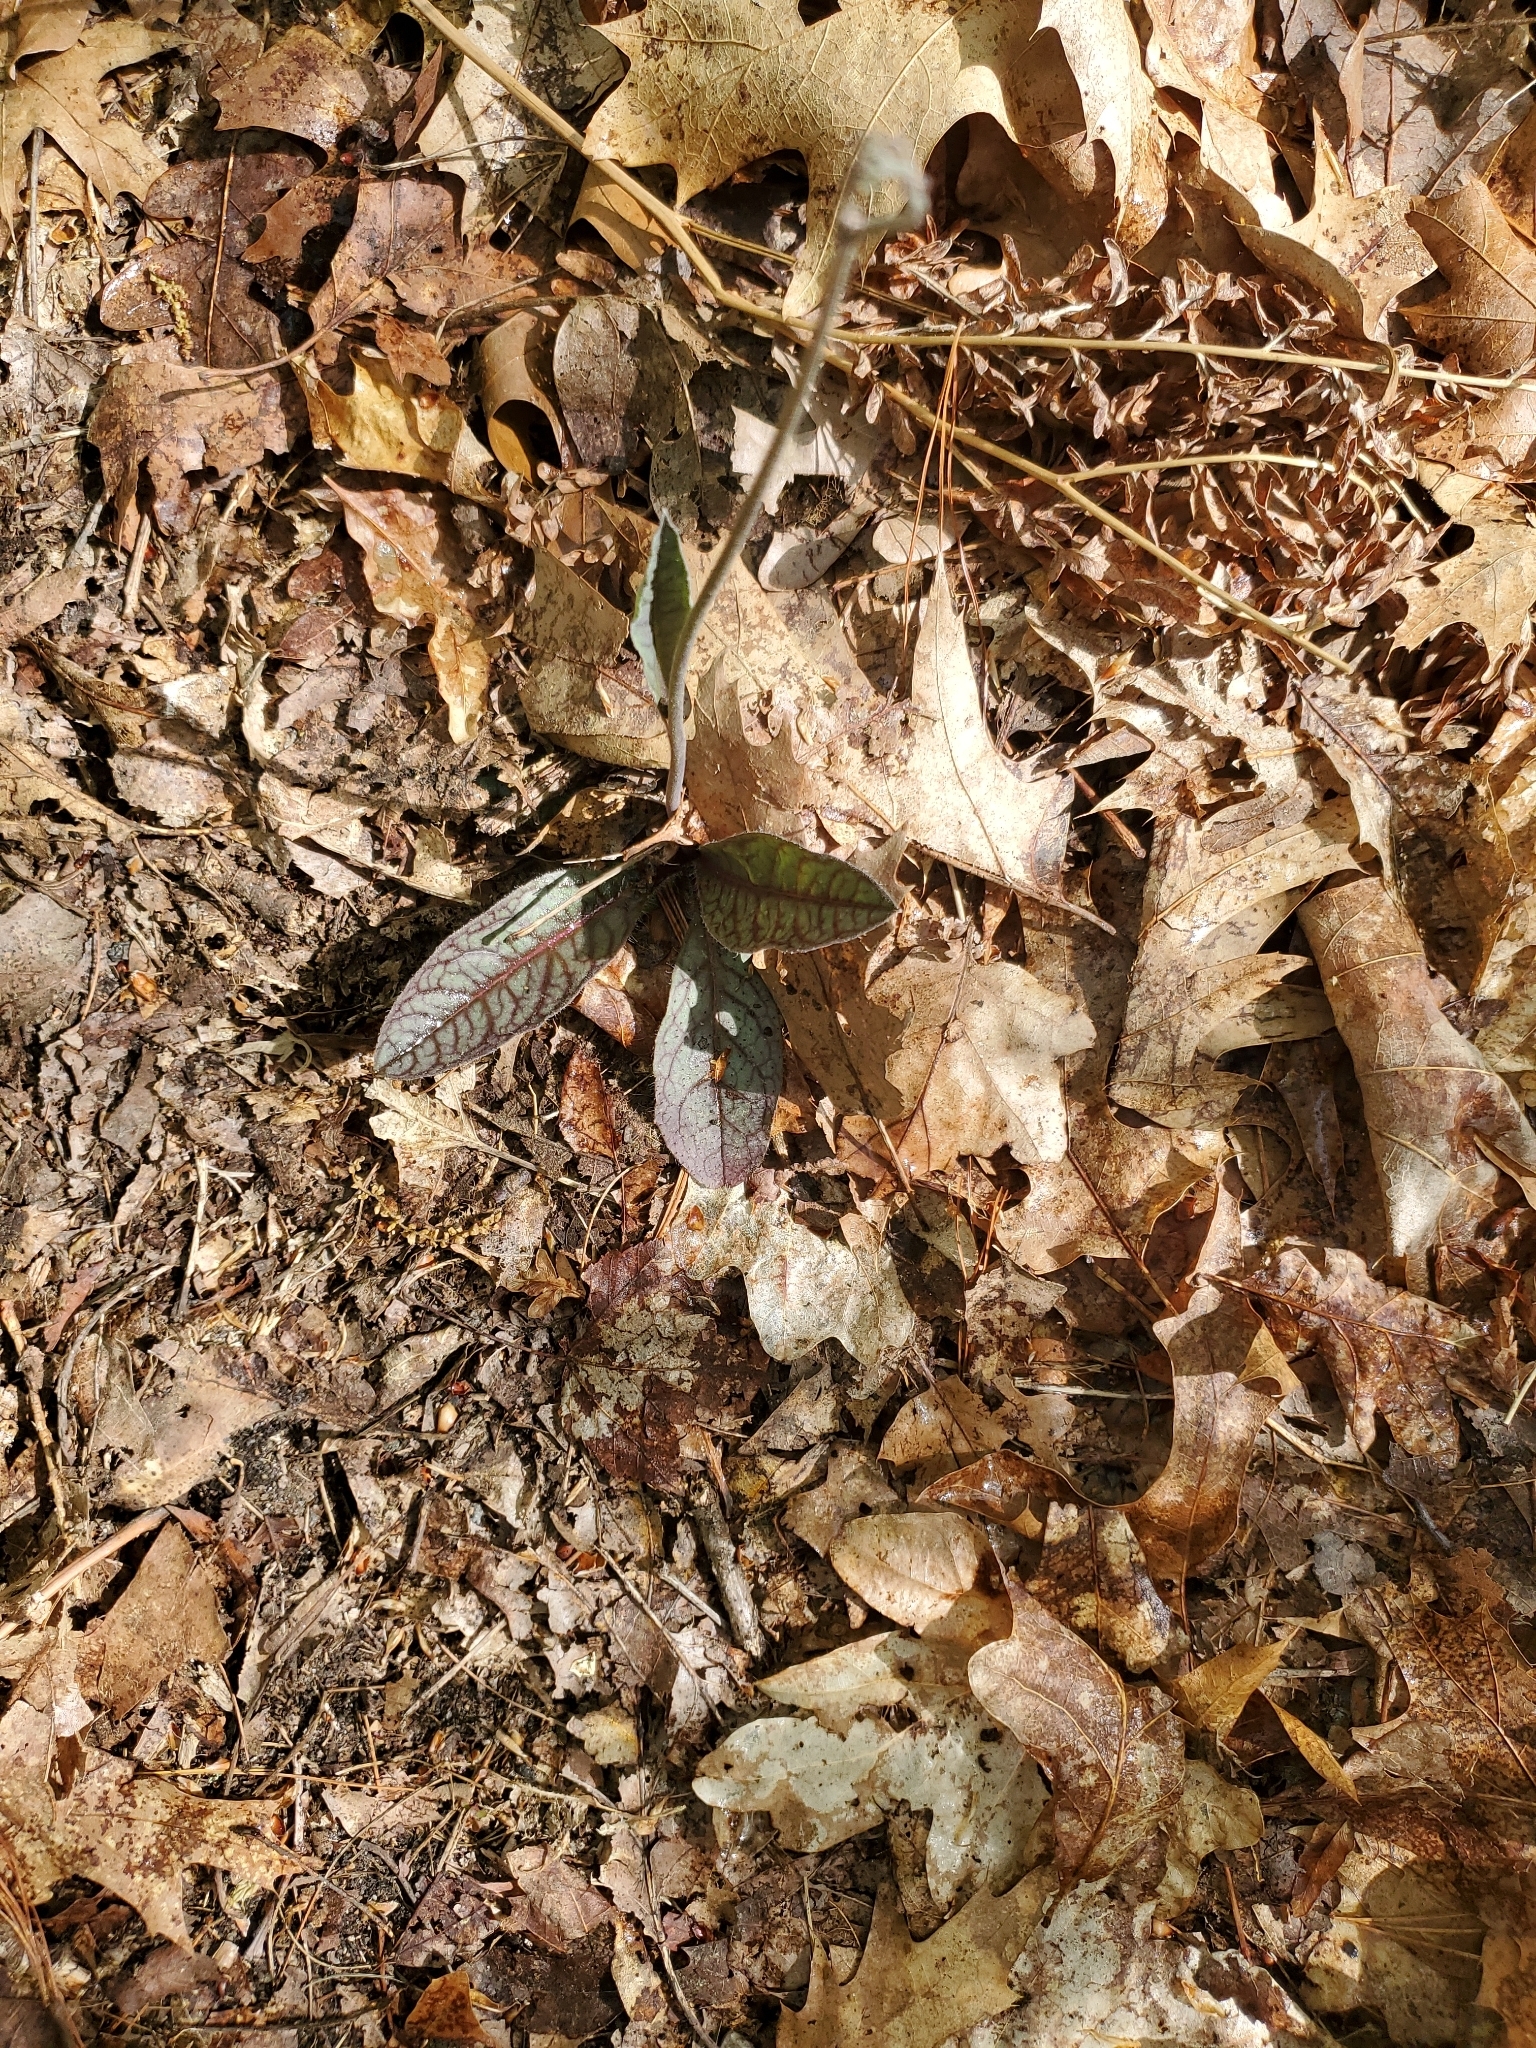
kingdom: Plantae
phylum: Tracheophyta
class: Magnoliopsida
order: Asterales
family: Asteraceae
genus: Hieracium
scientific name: Hieracium venosum
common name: Rattlesnake hawkweed
